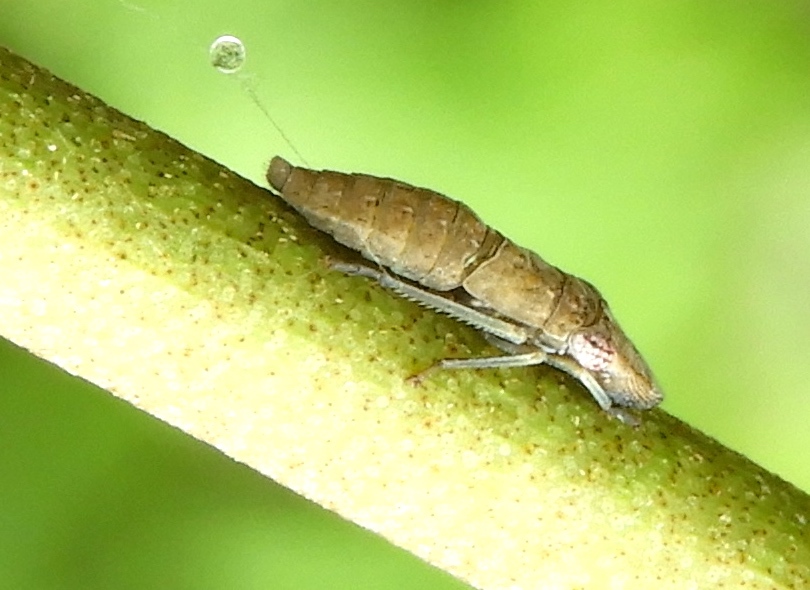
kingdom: Animalia
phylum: Arthropoda
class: Insecta
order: Hemiptera
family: Cicadellidae
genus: Homalodisca
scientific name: Homalodisca
